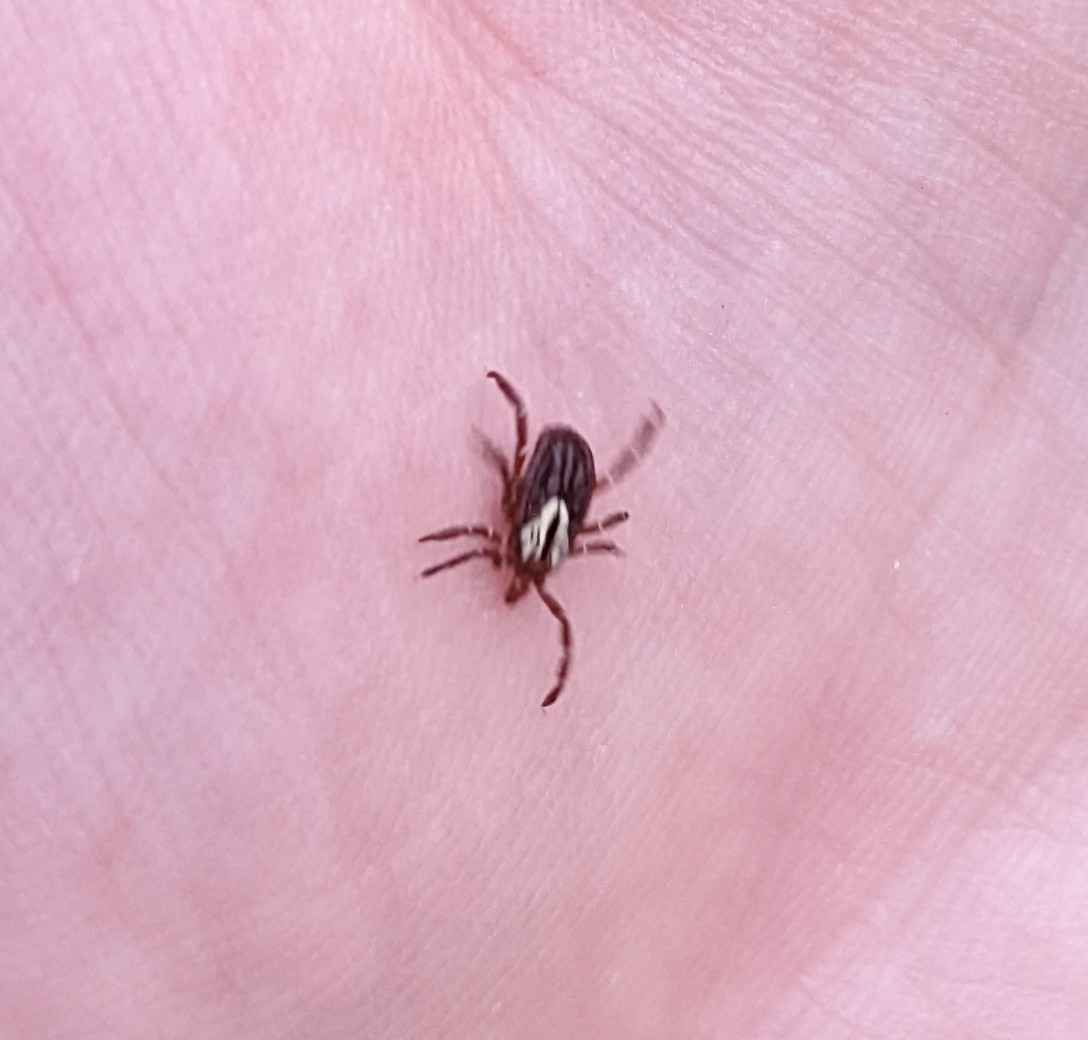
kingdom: Animalia
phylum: Arthropoda
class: Arachnida
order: Ixodida
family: Ixodidae
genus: Amblyomma
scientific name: Amblyomma maculatum
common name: Gulf coast tick
